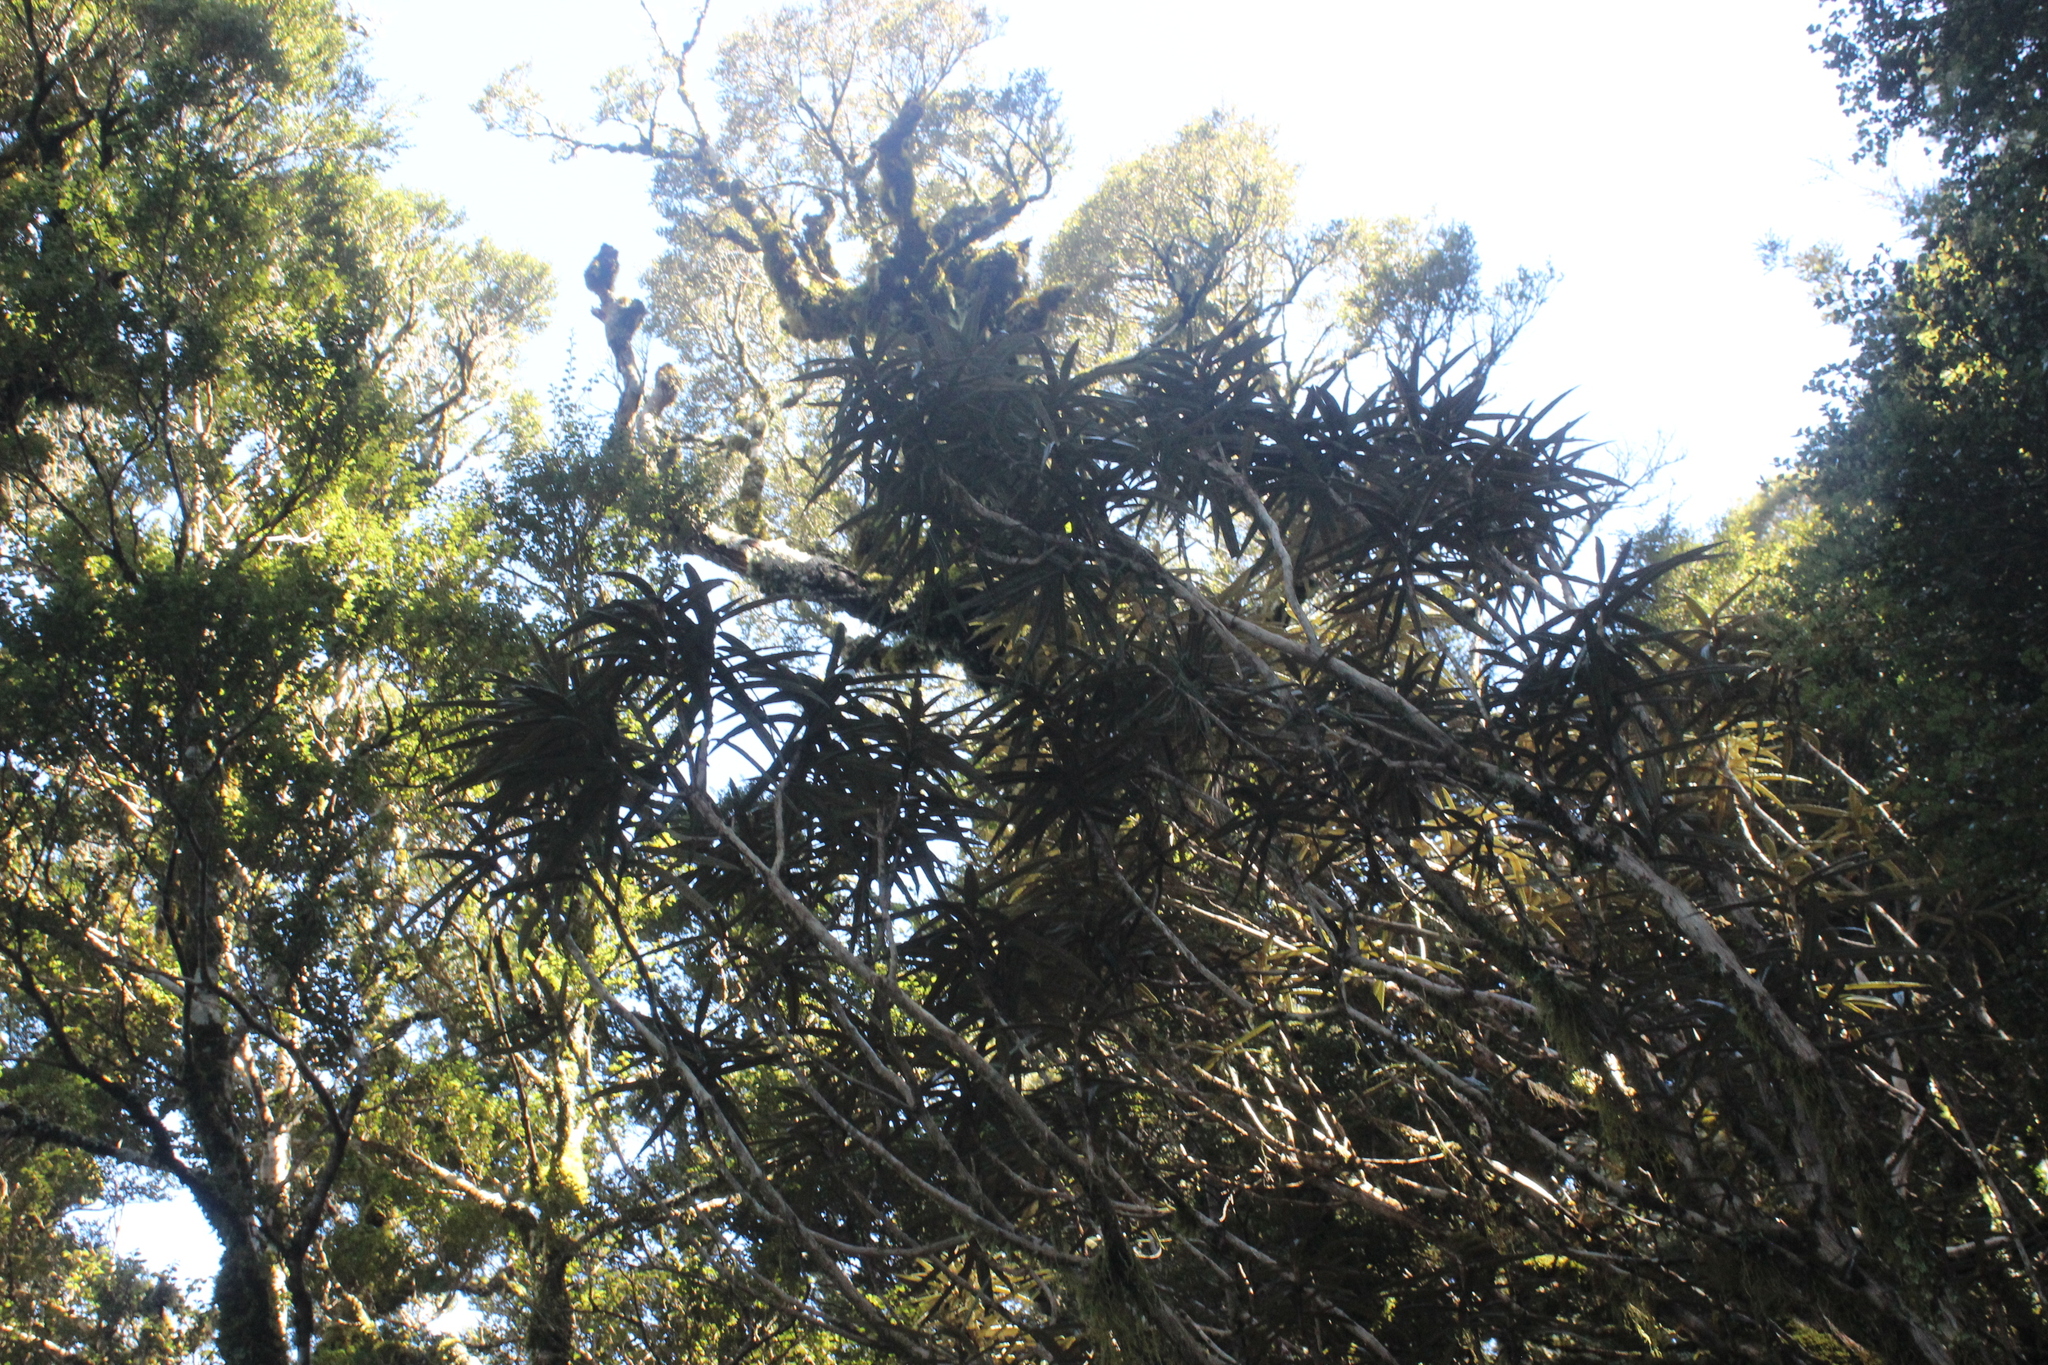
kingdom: Plantae
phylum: Tracheophyta
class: Magnoliopsida
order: Asterales
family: Asteraceae
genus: Olearia
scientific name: Olearia lacunosa
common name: Lancewood tree daisy
